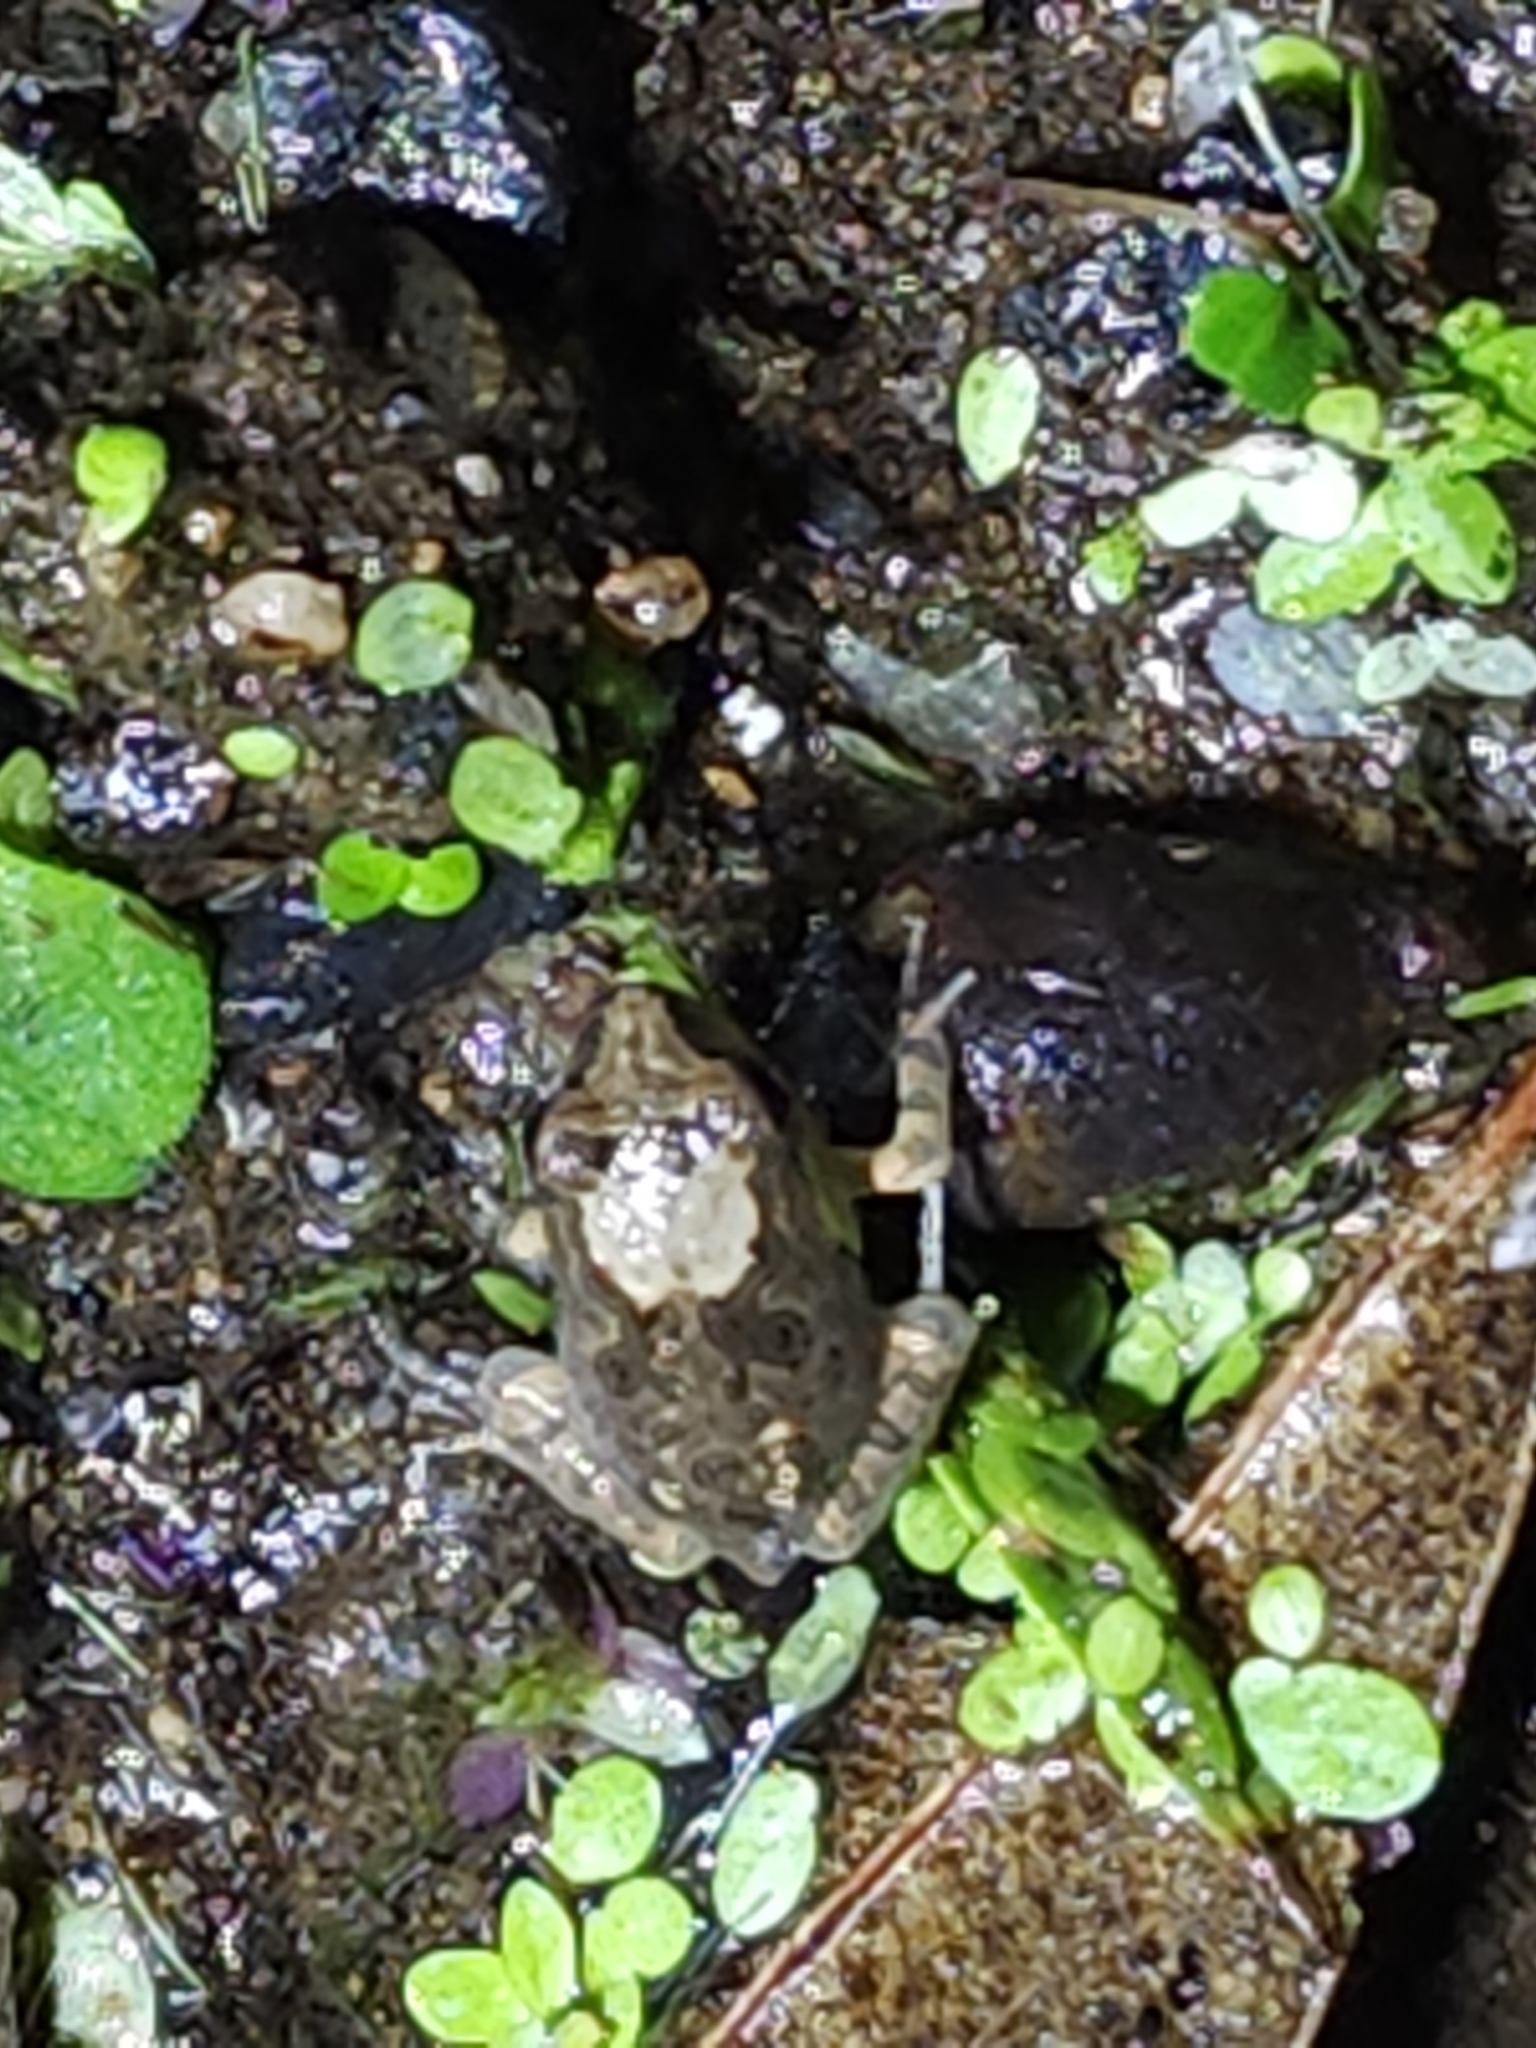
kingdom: Animalia
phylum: Chordata
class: Amphibia
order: Anura
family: Limnodynastidae
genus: Platyplectrum
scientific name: Platyplectrum ornatum
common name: Ornate burrowing frog
